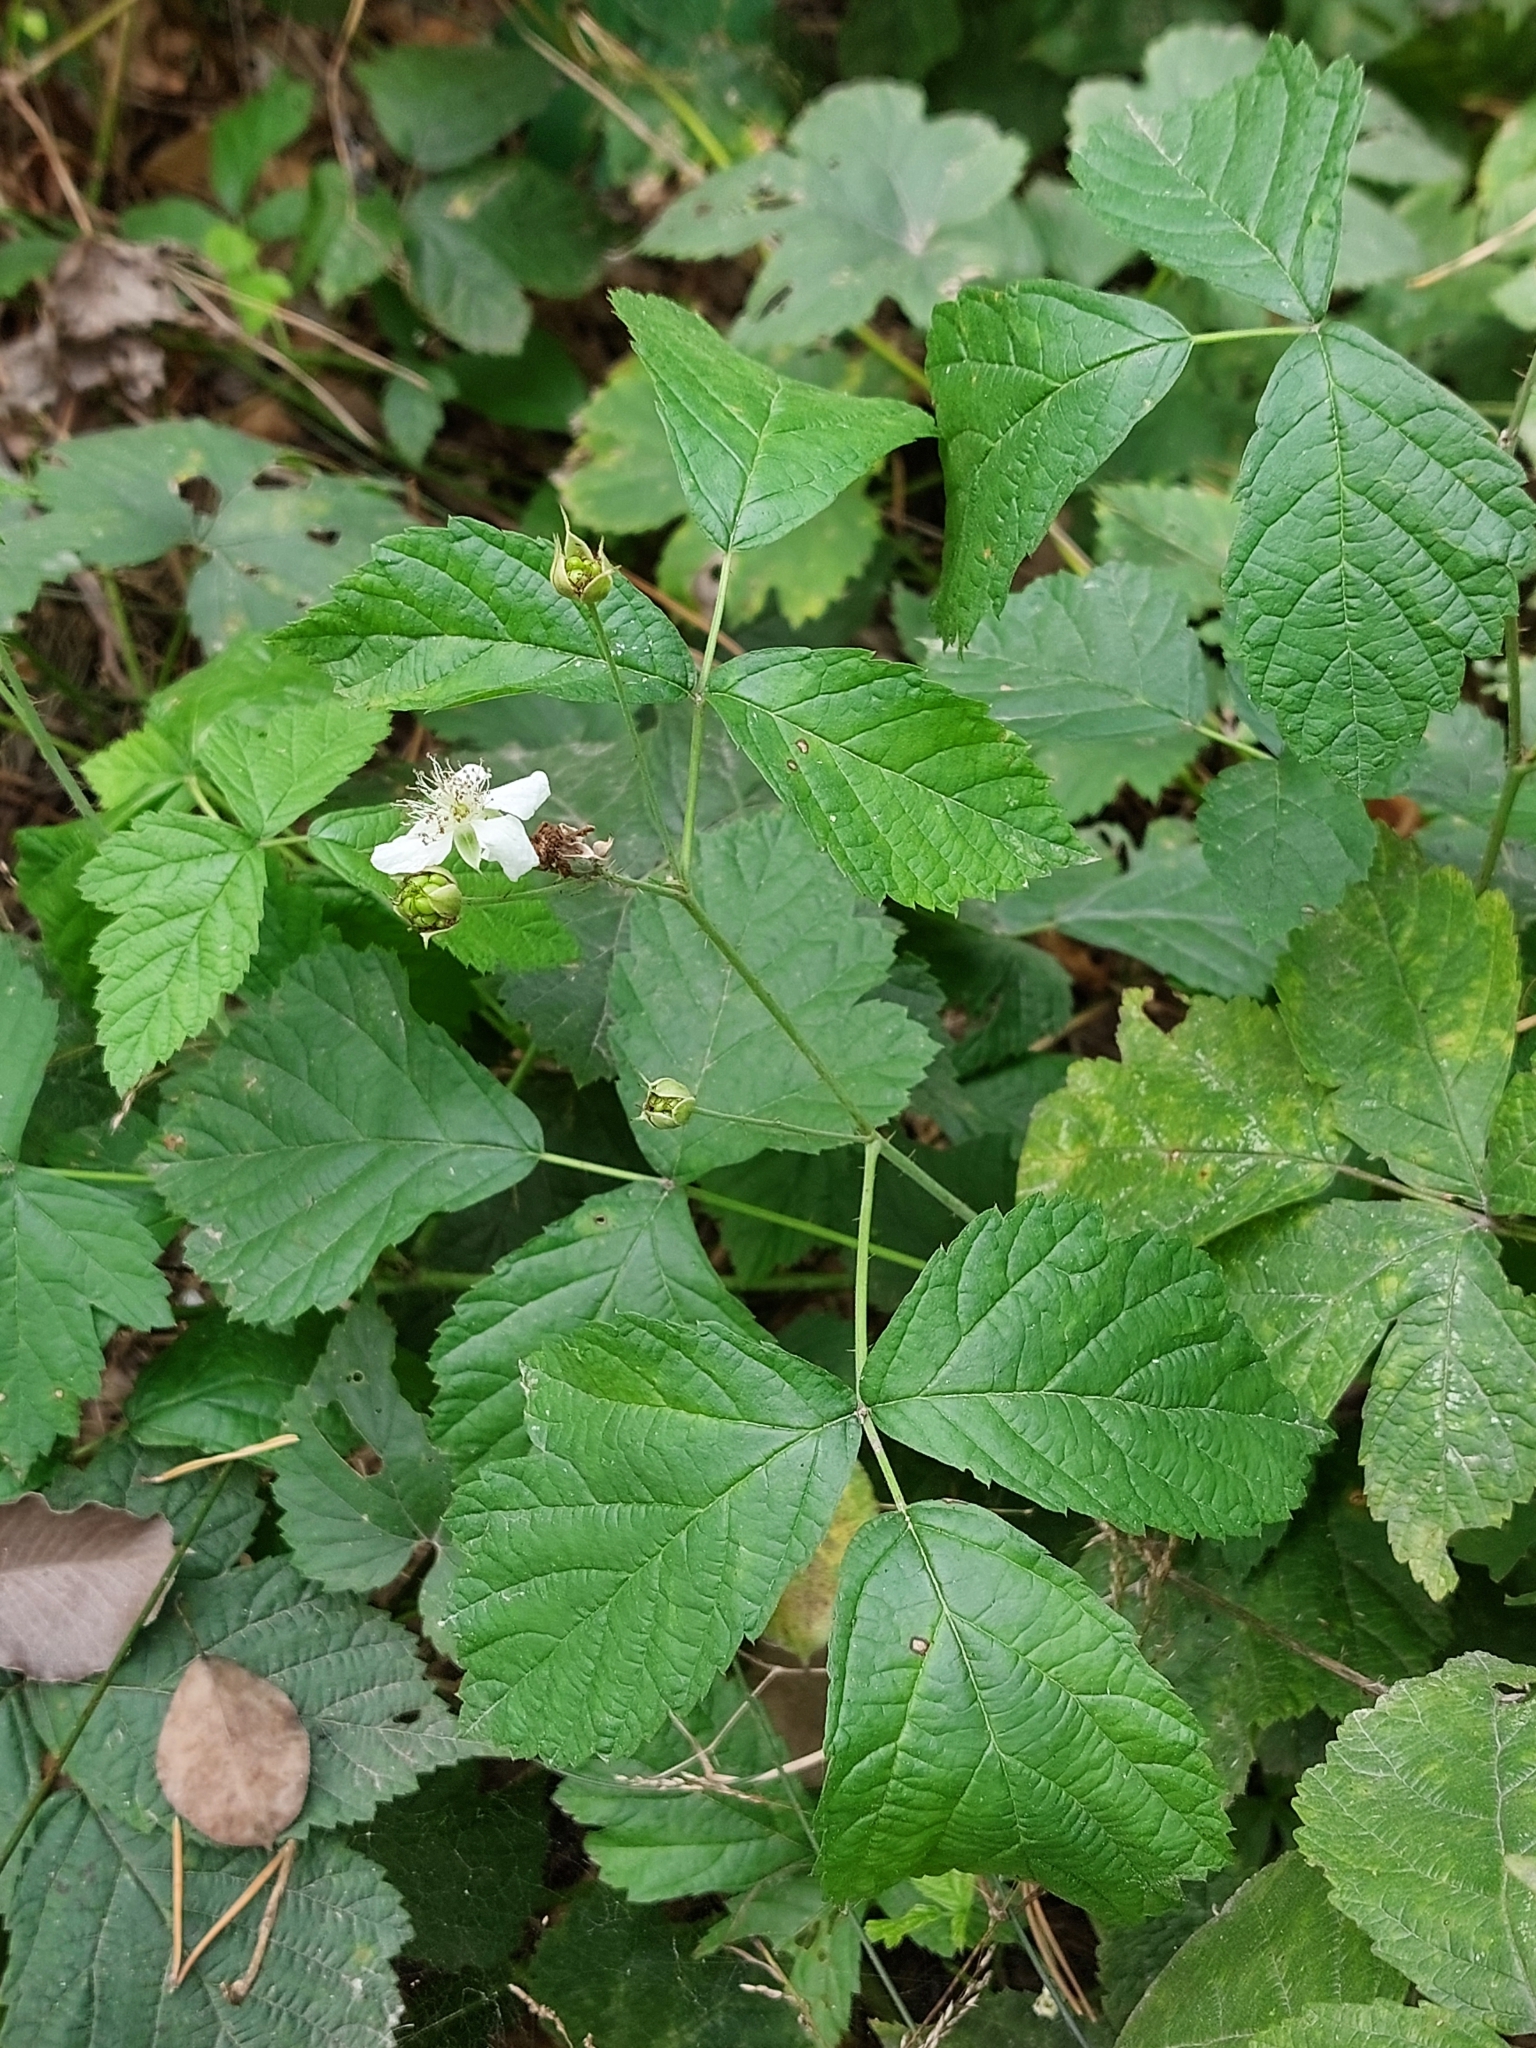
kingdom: Plantae
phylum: Tracheophyta
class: Magnoliopsida
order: Rosales
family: Rosaceae
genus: Rubus
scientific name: Rubus caesius
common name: Dewberry
